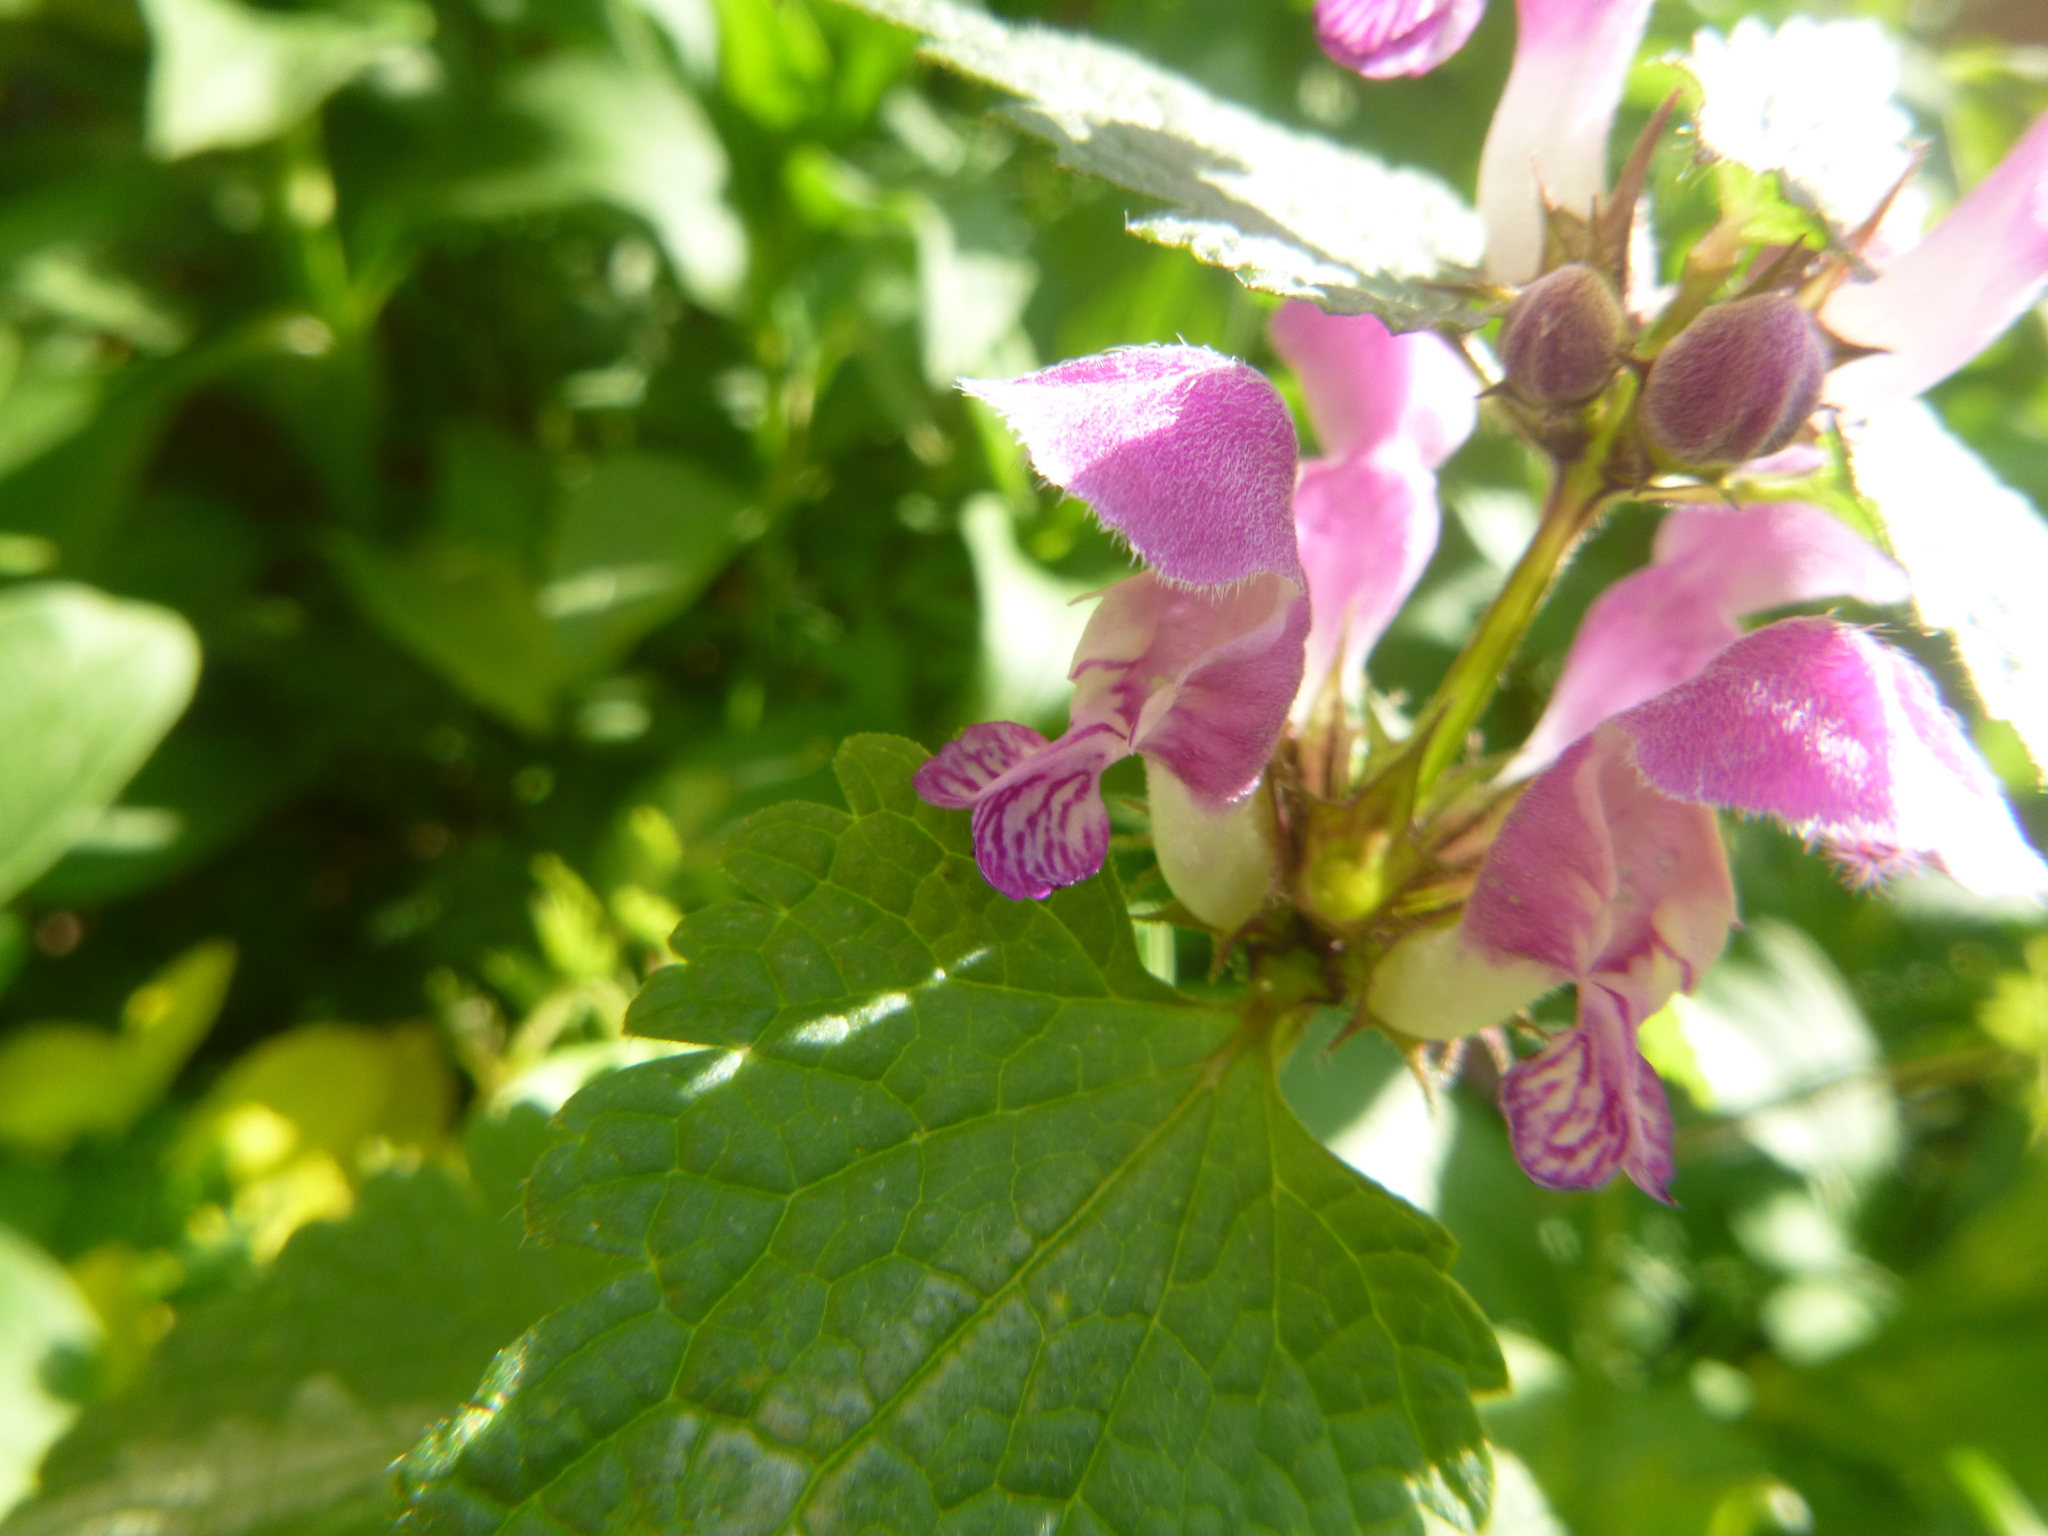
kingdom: Plantae
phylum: Tracheophyta
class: Magnoliopsida
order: Lamiales
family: Lamiaceae
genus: Lamium
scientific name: Lamium maculatum
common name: Spotted dead-nettle
